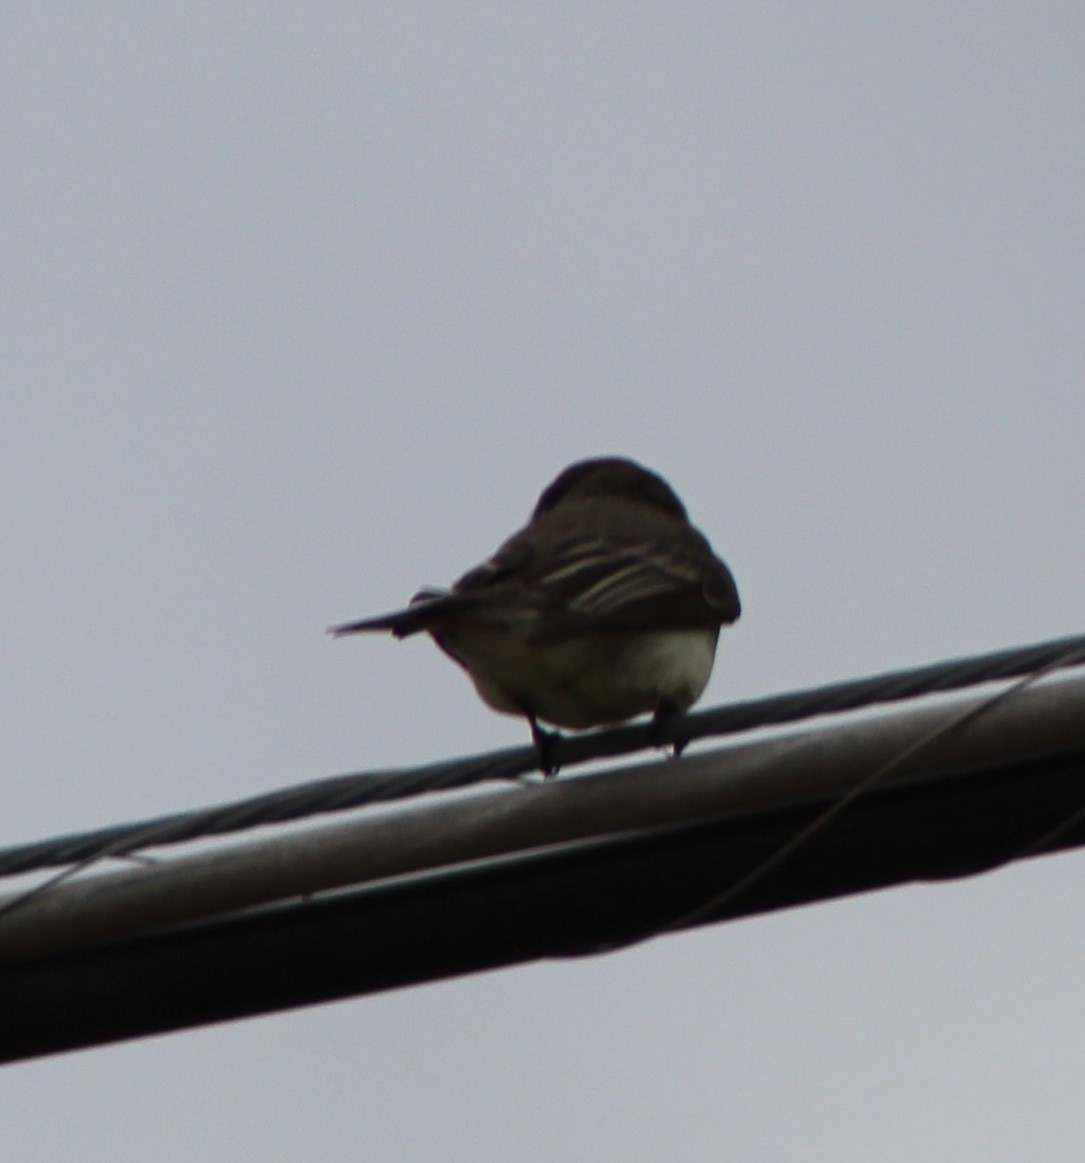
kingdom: Animalia
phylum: Chordata
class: Aves
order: Passeriformes
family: Tyrannidae
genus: Sayornis
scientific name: Sayornis phoebe
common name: Eastern phoebe
